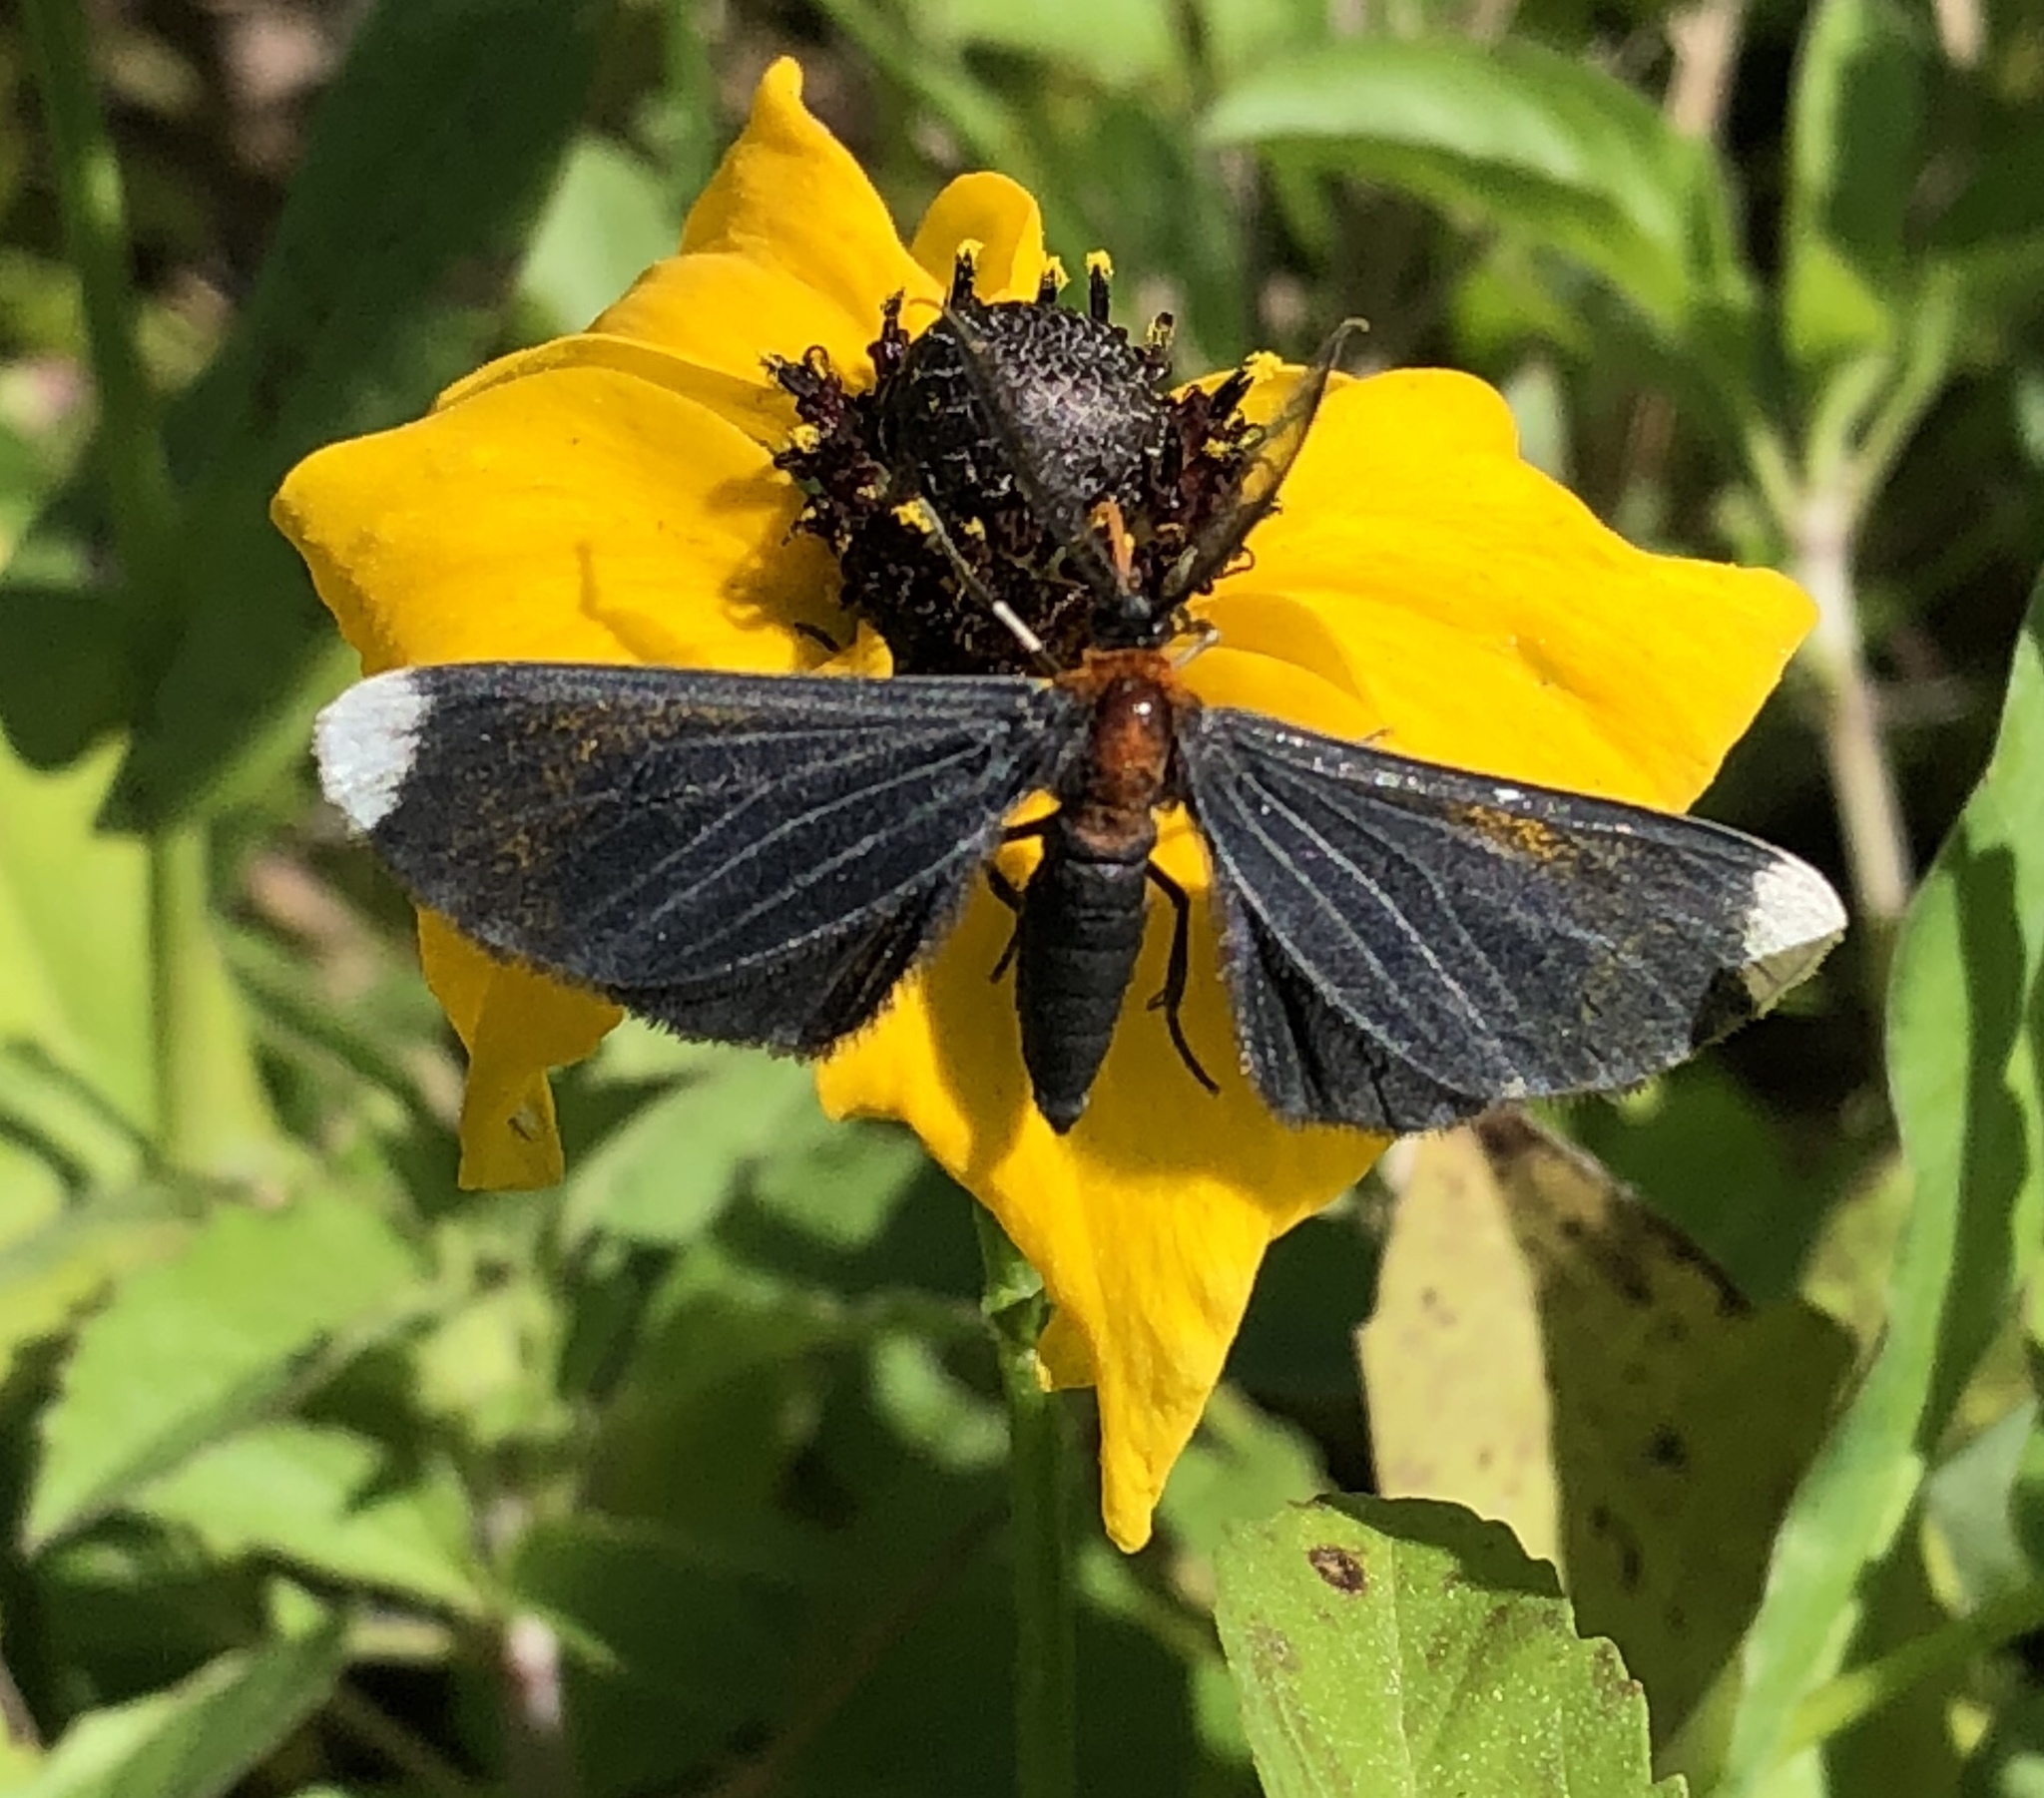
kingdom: Animalia
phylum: Arthropoda
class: Insecta
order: Lepidoptera
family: Geometridae
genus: Melanchroia
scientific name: Melanchroia chephise
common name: White-tipped black
